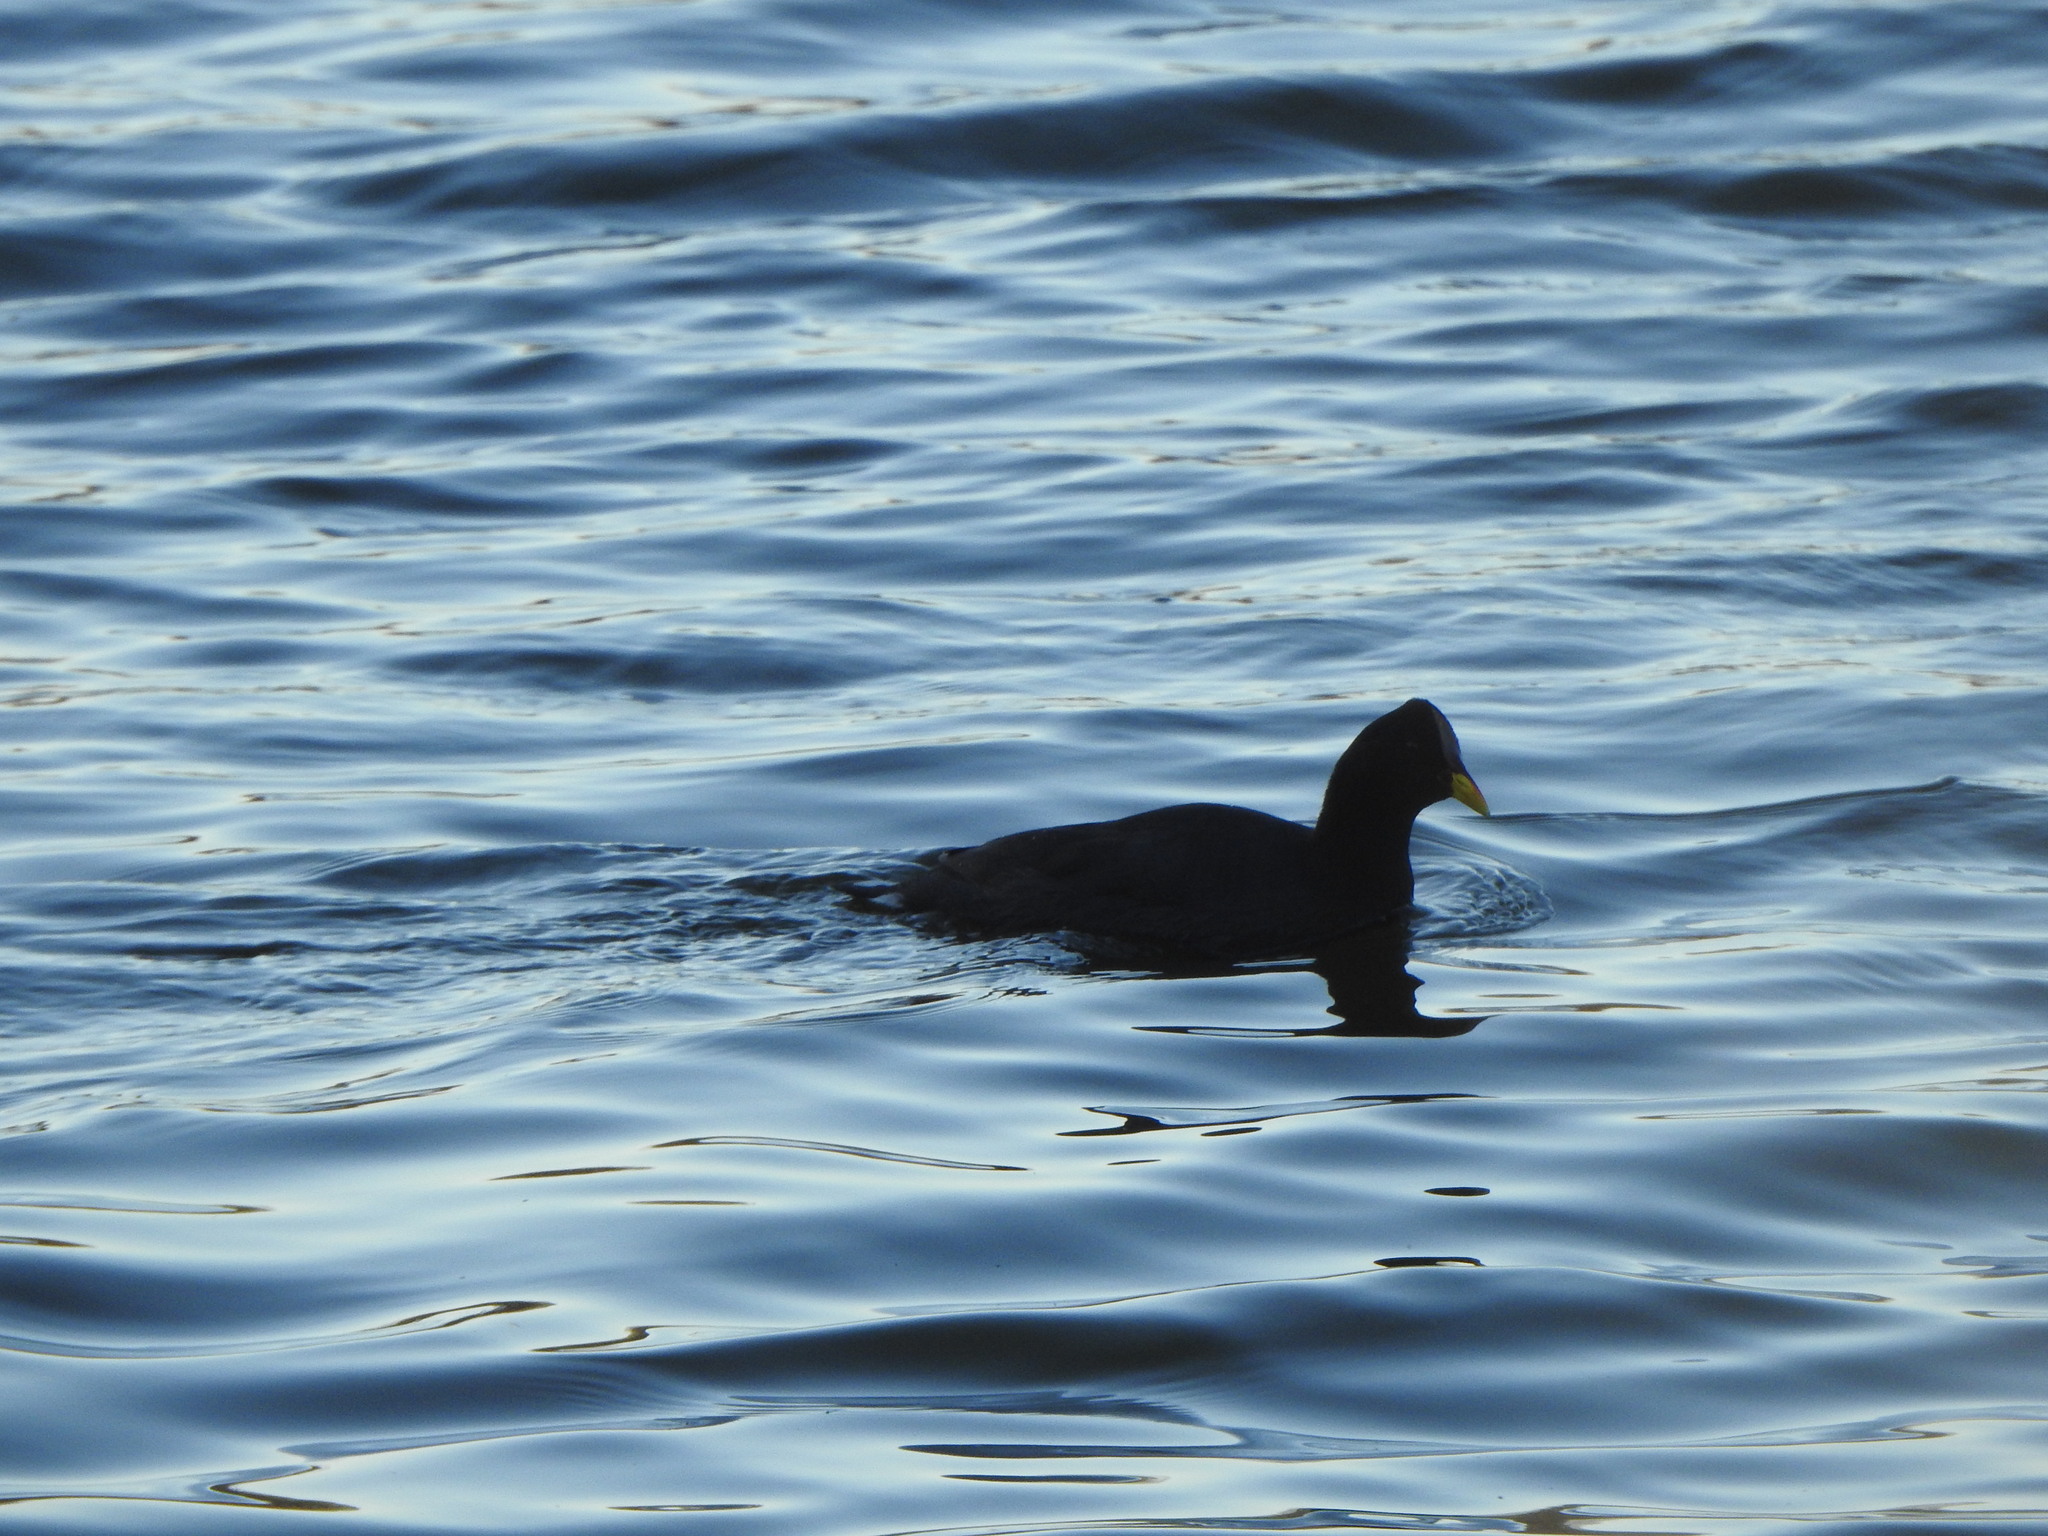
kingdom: Animalia
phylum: Chordata
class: Aves
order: Gruiformes
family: Rallidae
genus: Fulica
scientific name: Fulica rufifrons
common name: Red-fronted coot
